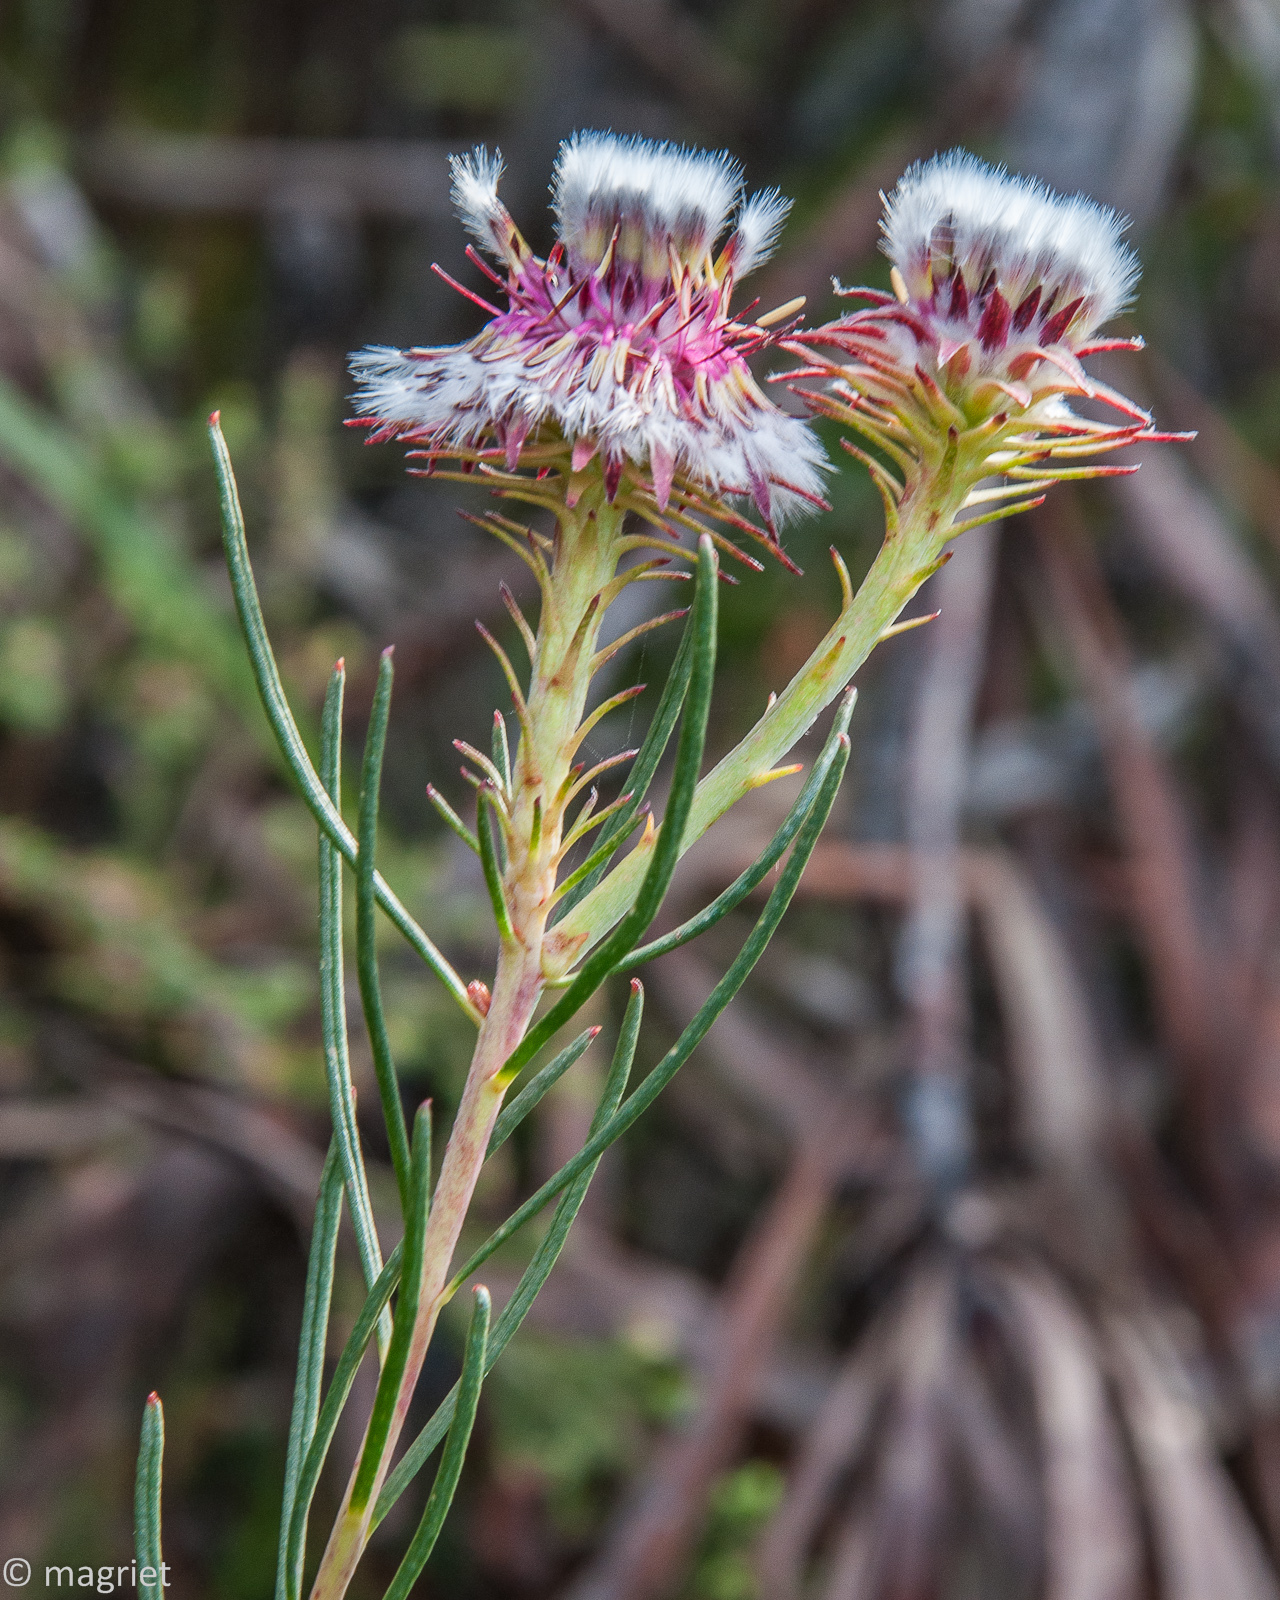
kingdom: Plantae
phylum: Tracheophyta
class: Magnoliopsida
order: Proteales
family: Proteaceae
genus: Serruria
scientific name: Serruria heterophylla
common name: Spindly spiderhead
